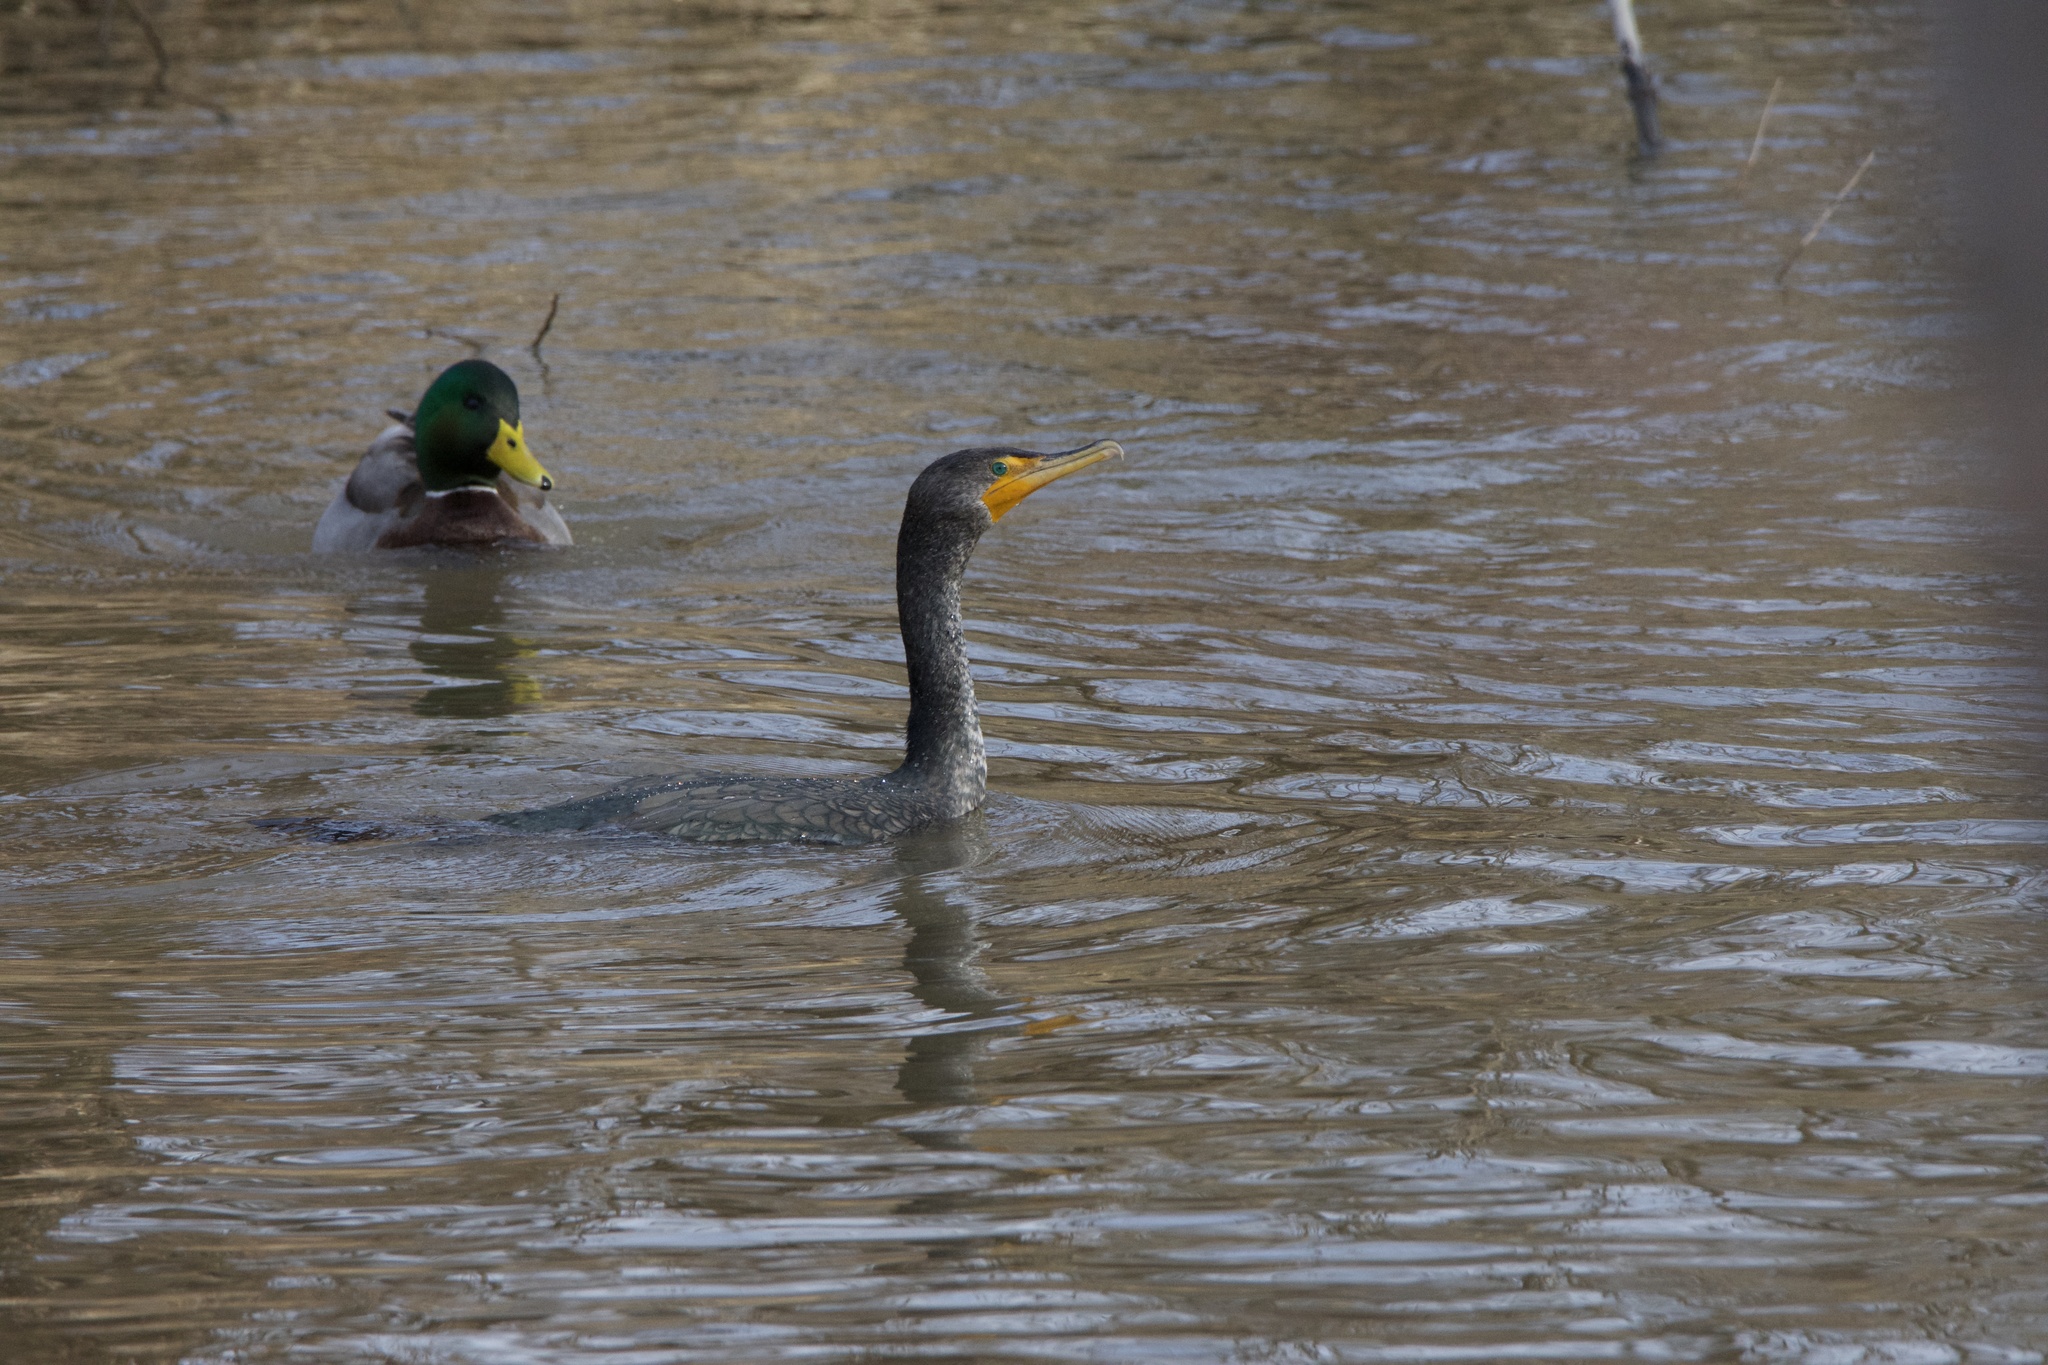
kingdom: Animalia
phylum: Chordata
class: Aves
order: Suliformes
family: Phalacrocoracidae
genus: Phalacrocorax
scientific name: Phalacrocorax auritus
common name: Double-crested cormorant
